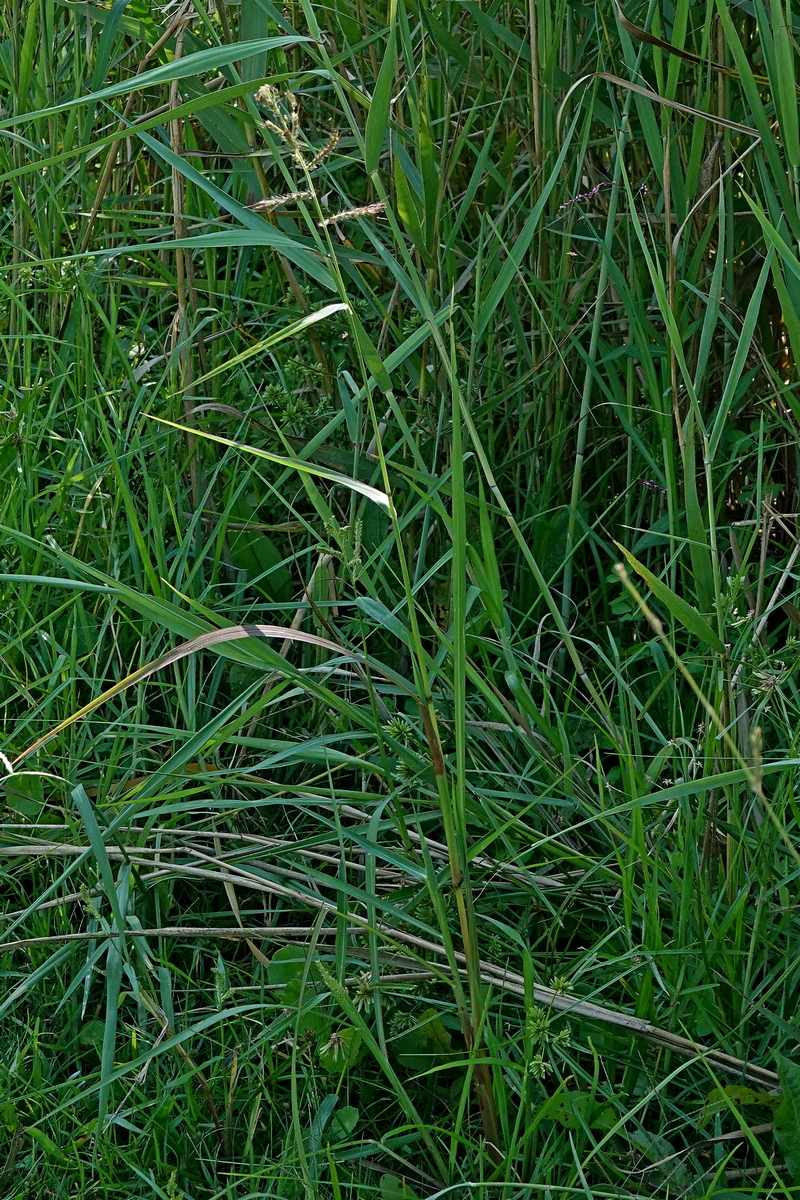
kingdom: Plantae
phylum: Tracheophyta
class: Liliopsida
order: Poales
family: Poaceae
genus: Echinochloa
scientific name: Echinochloa crus-galli
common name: Cockspur
